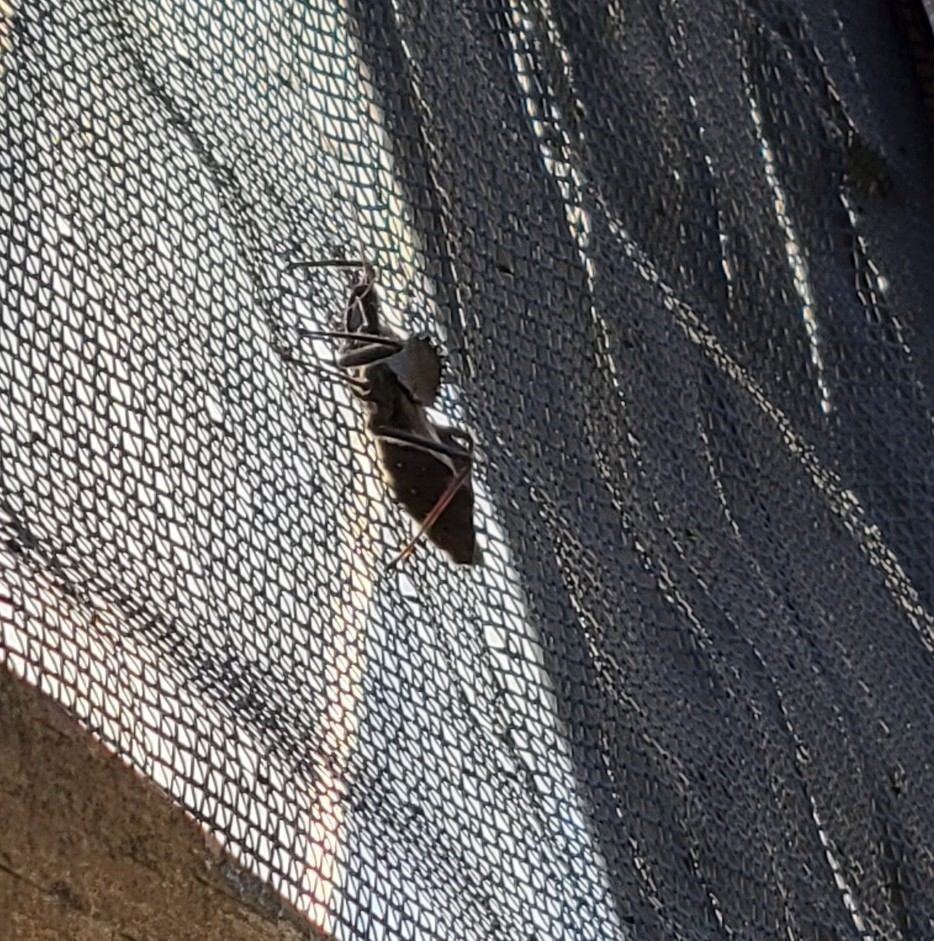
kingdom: Animalia
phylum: Arthropoda
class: Insecta
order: Hemiptera
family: Reduviidae
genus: Arilus
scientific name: Arilus cristatus
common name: North american wheel bug
